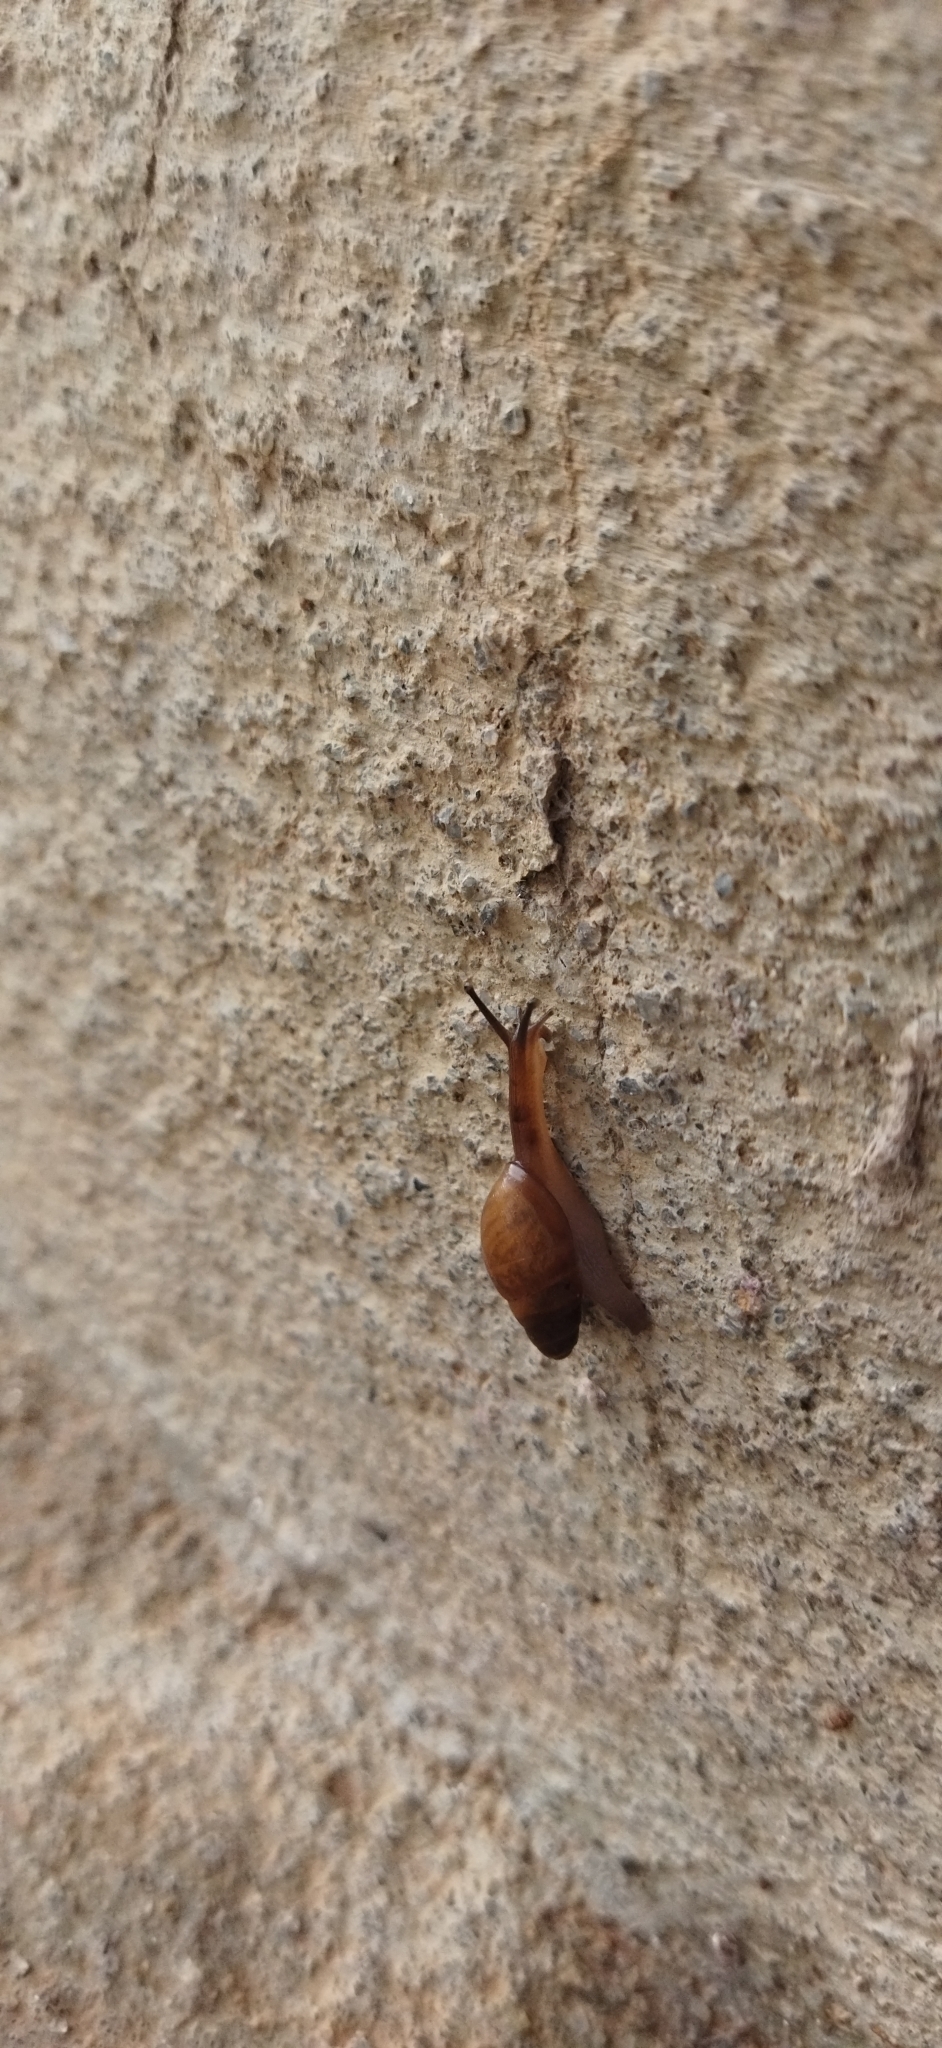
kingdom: Animalia
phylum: Mollusca
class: Gastropoda
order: Stylommatophora
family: Spiraxidae
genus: Euglandina
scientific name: Euglandina rosea
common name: Rosy wolfsnail
